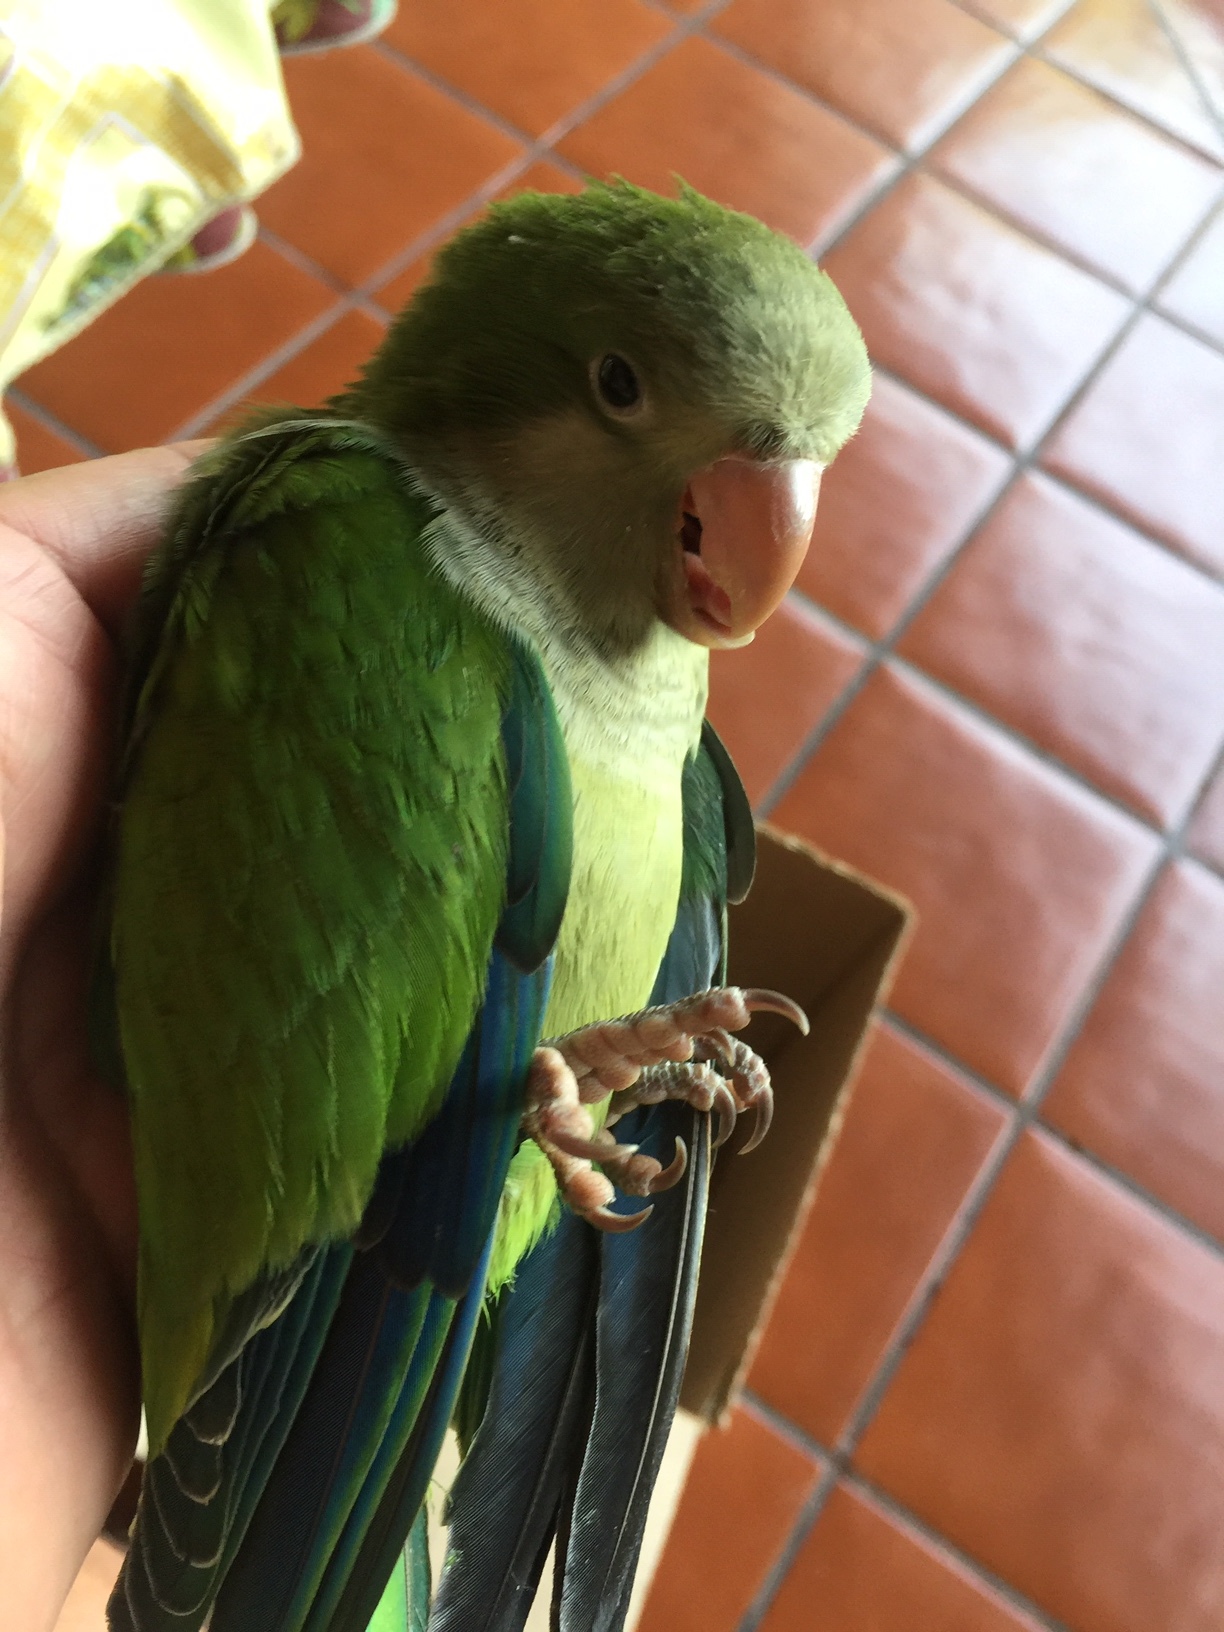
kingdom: Animalia
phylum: Chordata
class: Aves
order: Psittaciformes
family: Psittacidae
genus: Myiopsitta
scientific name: Myiopsitta monachus
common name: Monk parakeet
